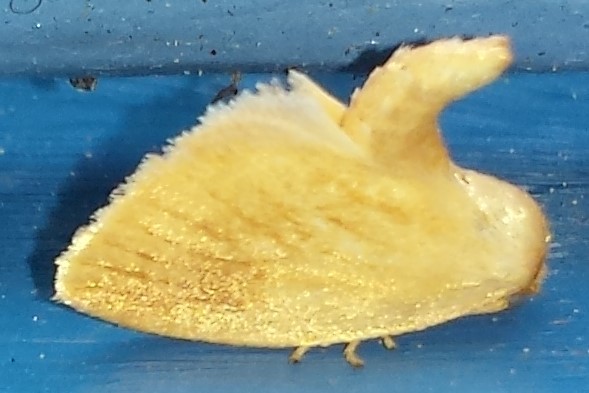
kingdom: Animalia
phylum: Arthropoda
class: Insecta
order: Lepidoptera
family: Limacodidae
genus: Tortricidia
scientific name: Tortricidia testacea
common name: Early button slug moth
